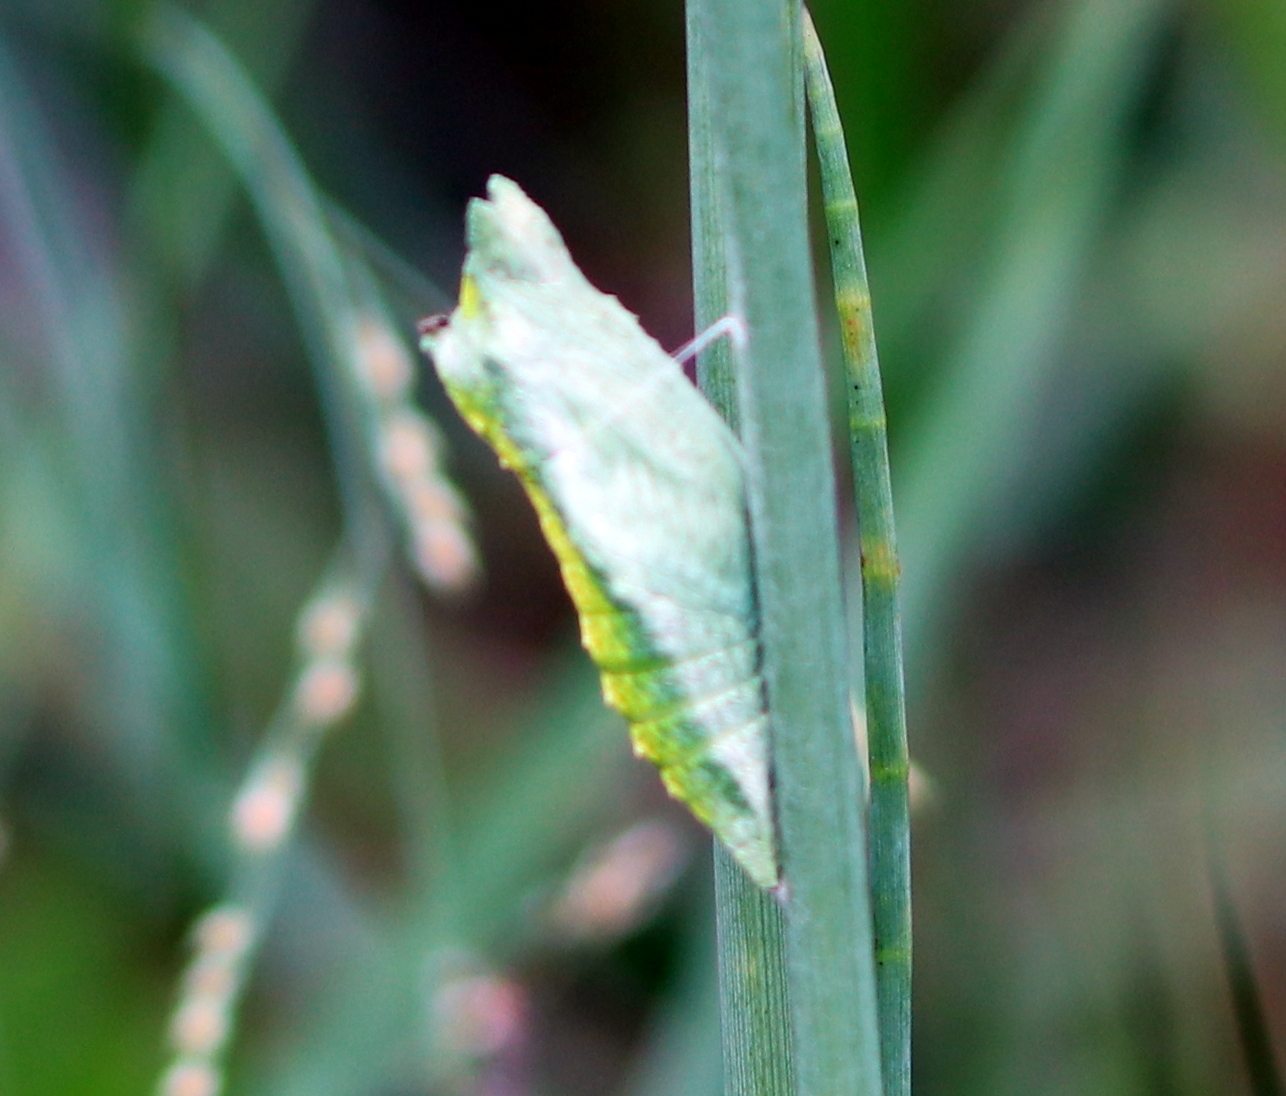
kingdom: Animalia
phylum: Arthropoda
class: Insecta
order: Lepidoptera
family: Papilionidae
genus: Papilio
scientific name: Papilio polyxenes
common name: Black swallowtail
